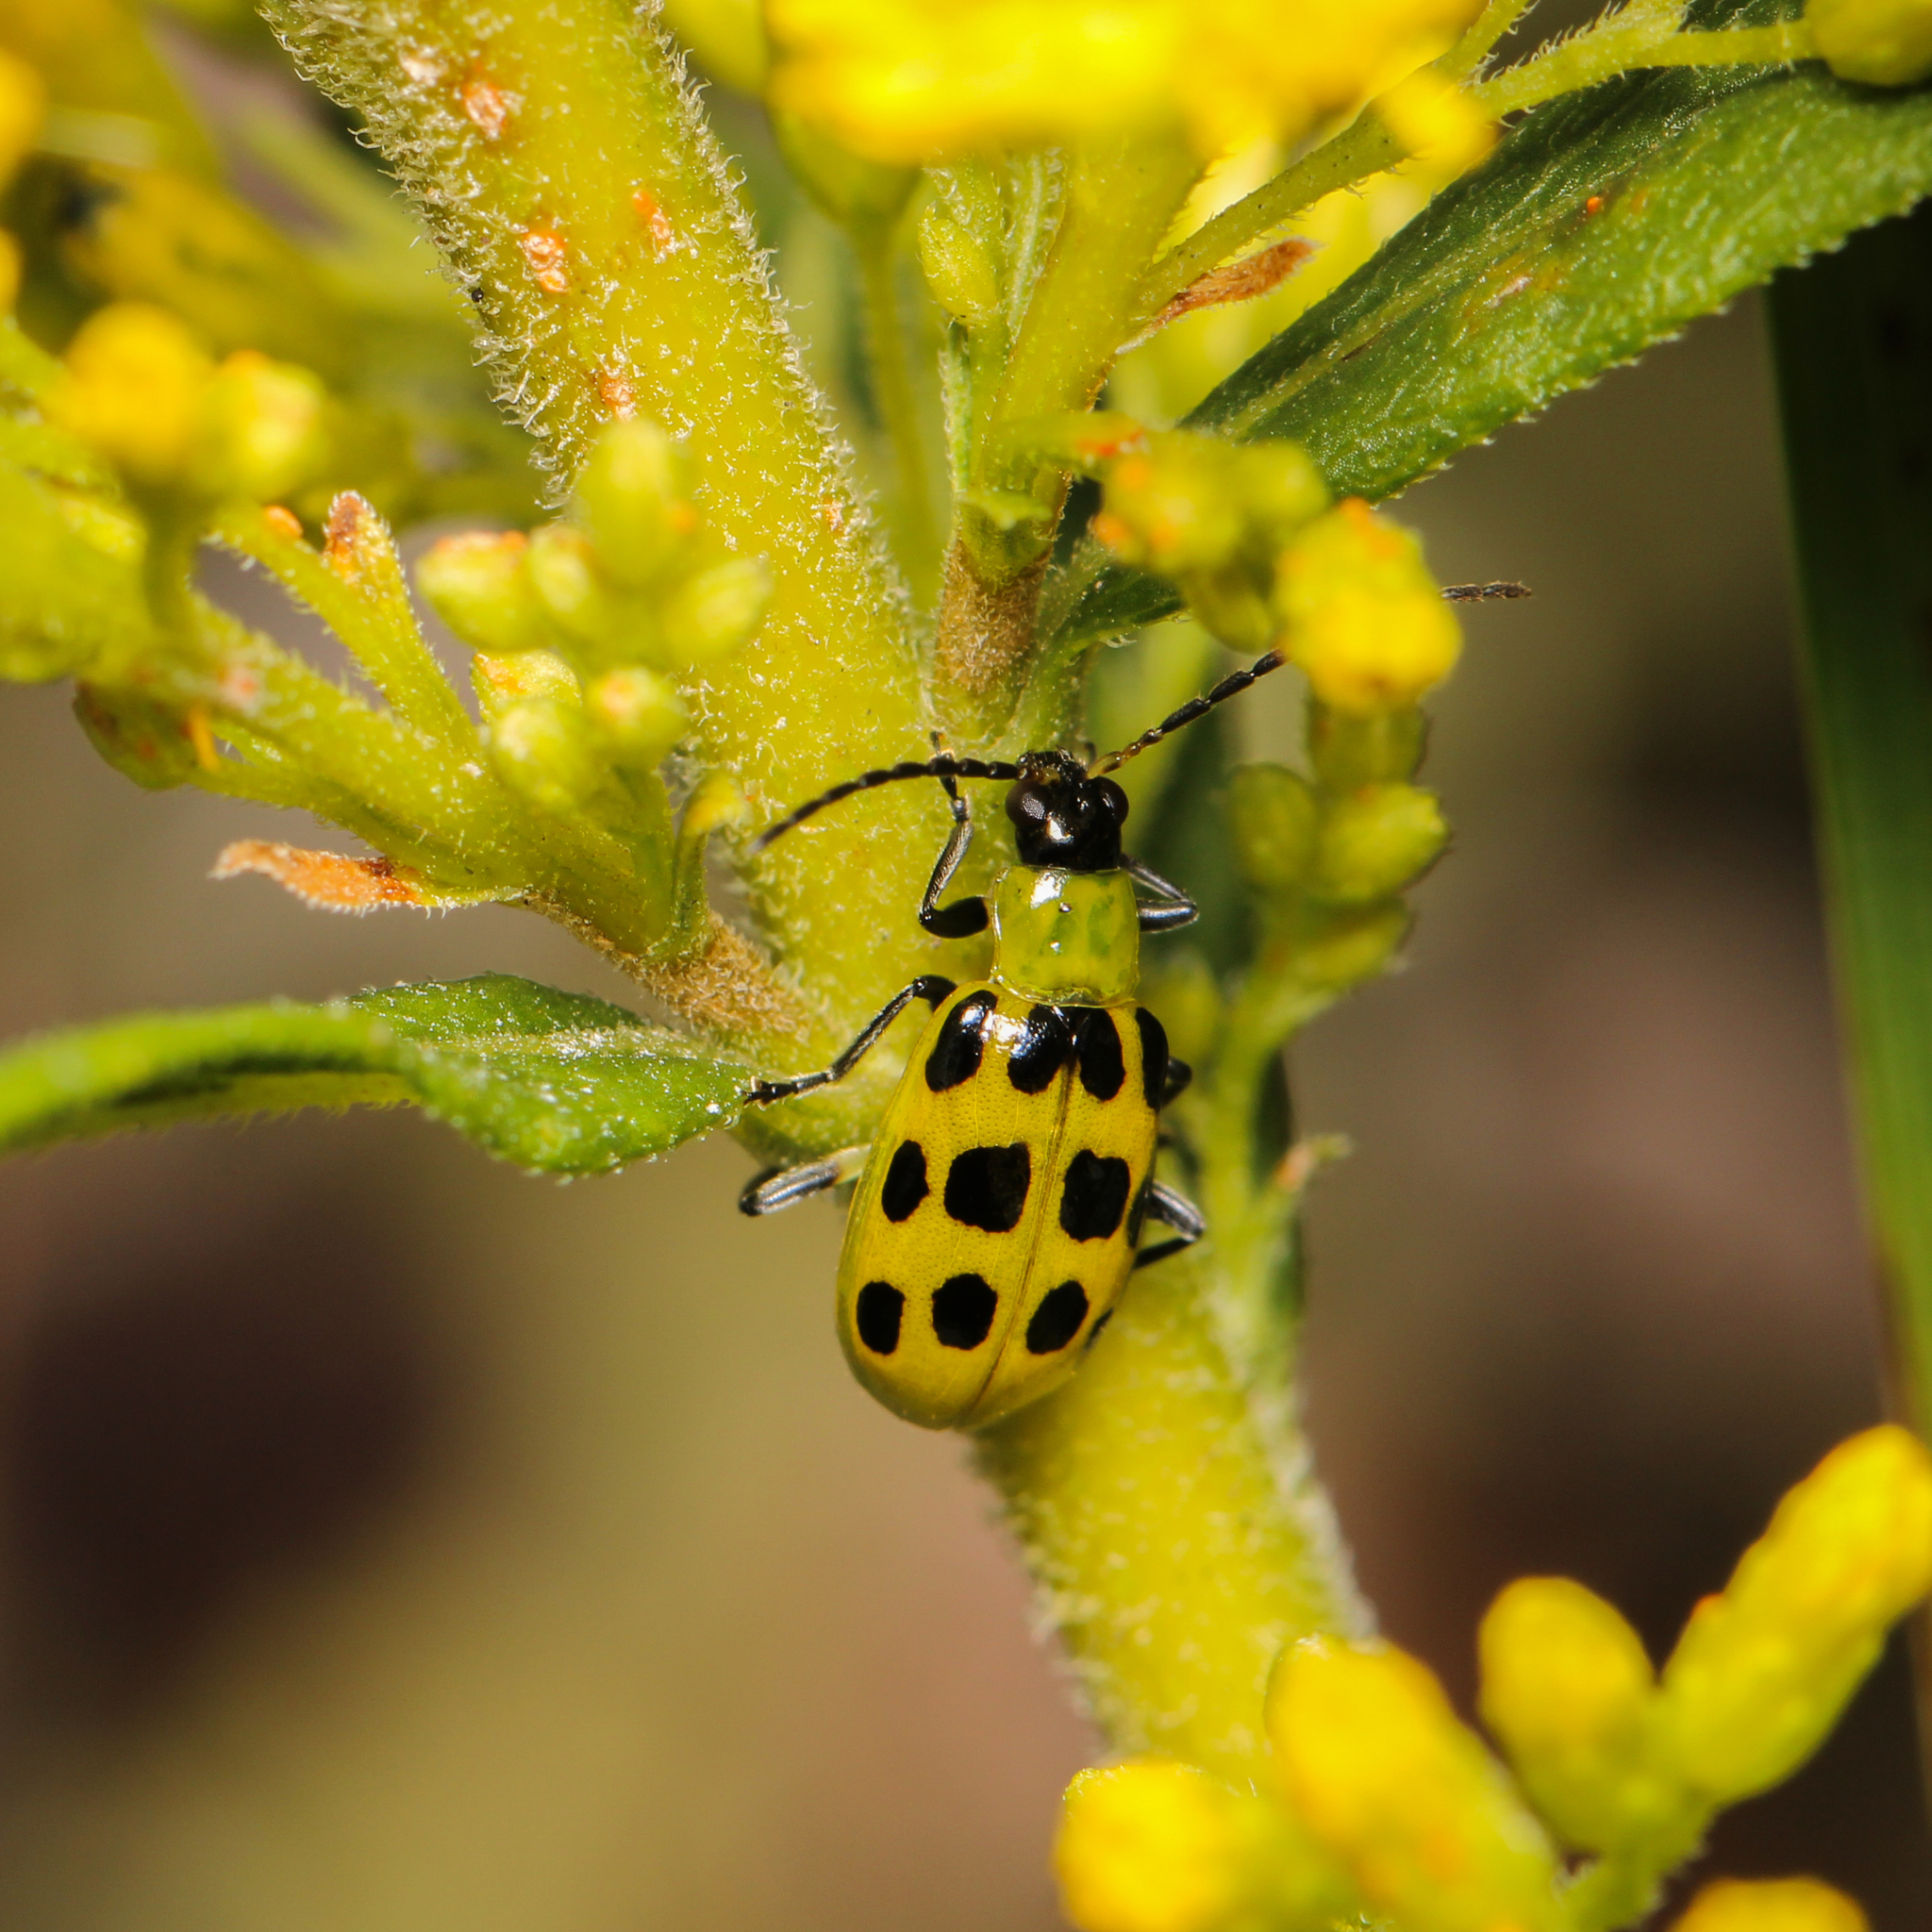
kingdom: Animalia
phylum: Arthropoda
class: Insecta
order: Coleoptera
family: Chrysomelidae
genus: Diabrotica
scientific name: Diabrotica undecimpunctata
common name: Spotted cucumber beetle
